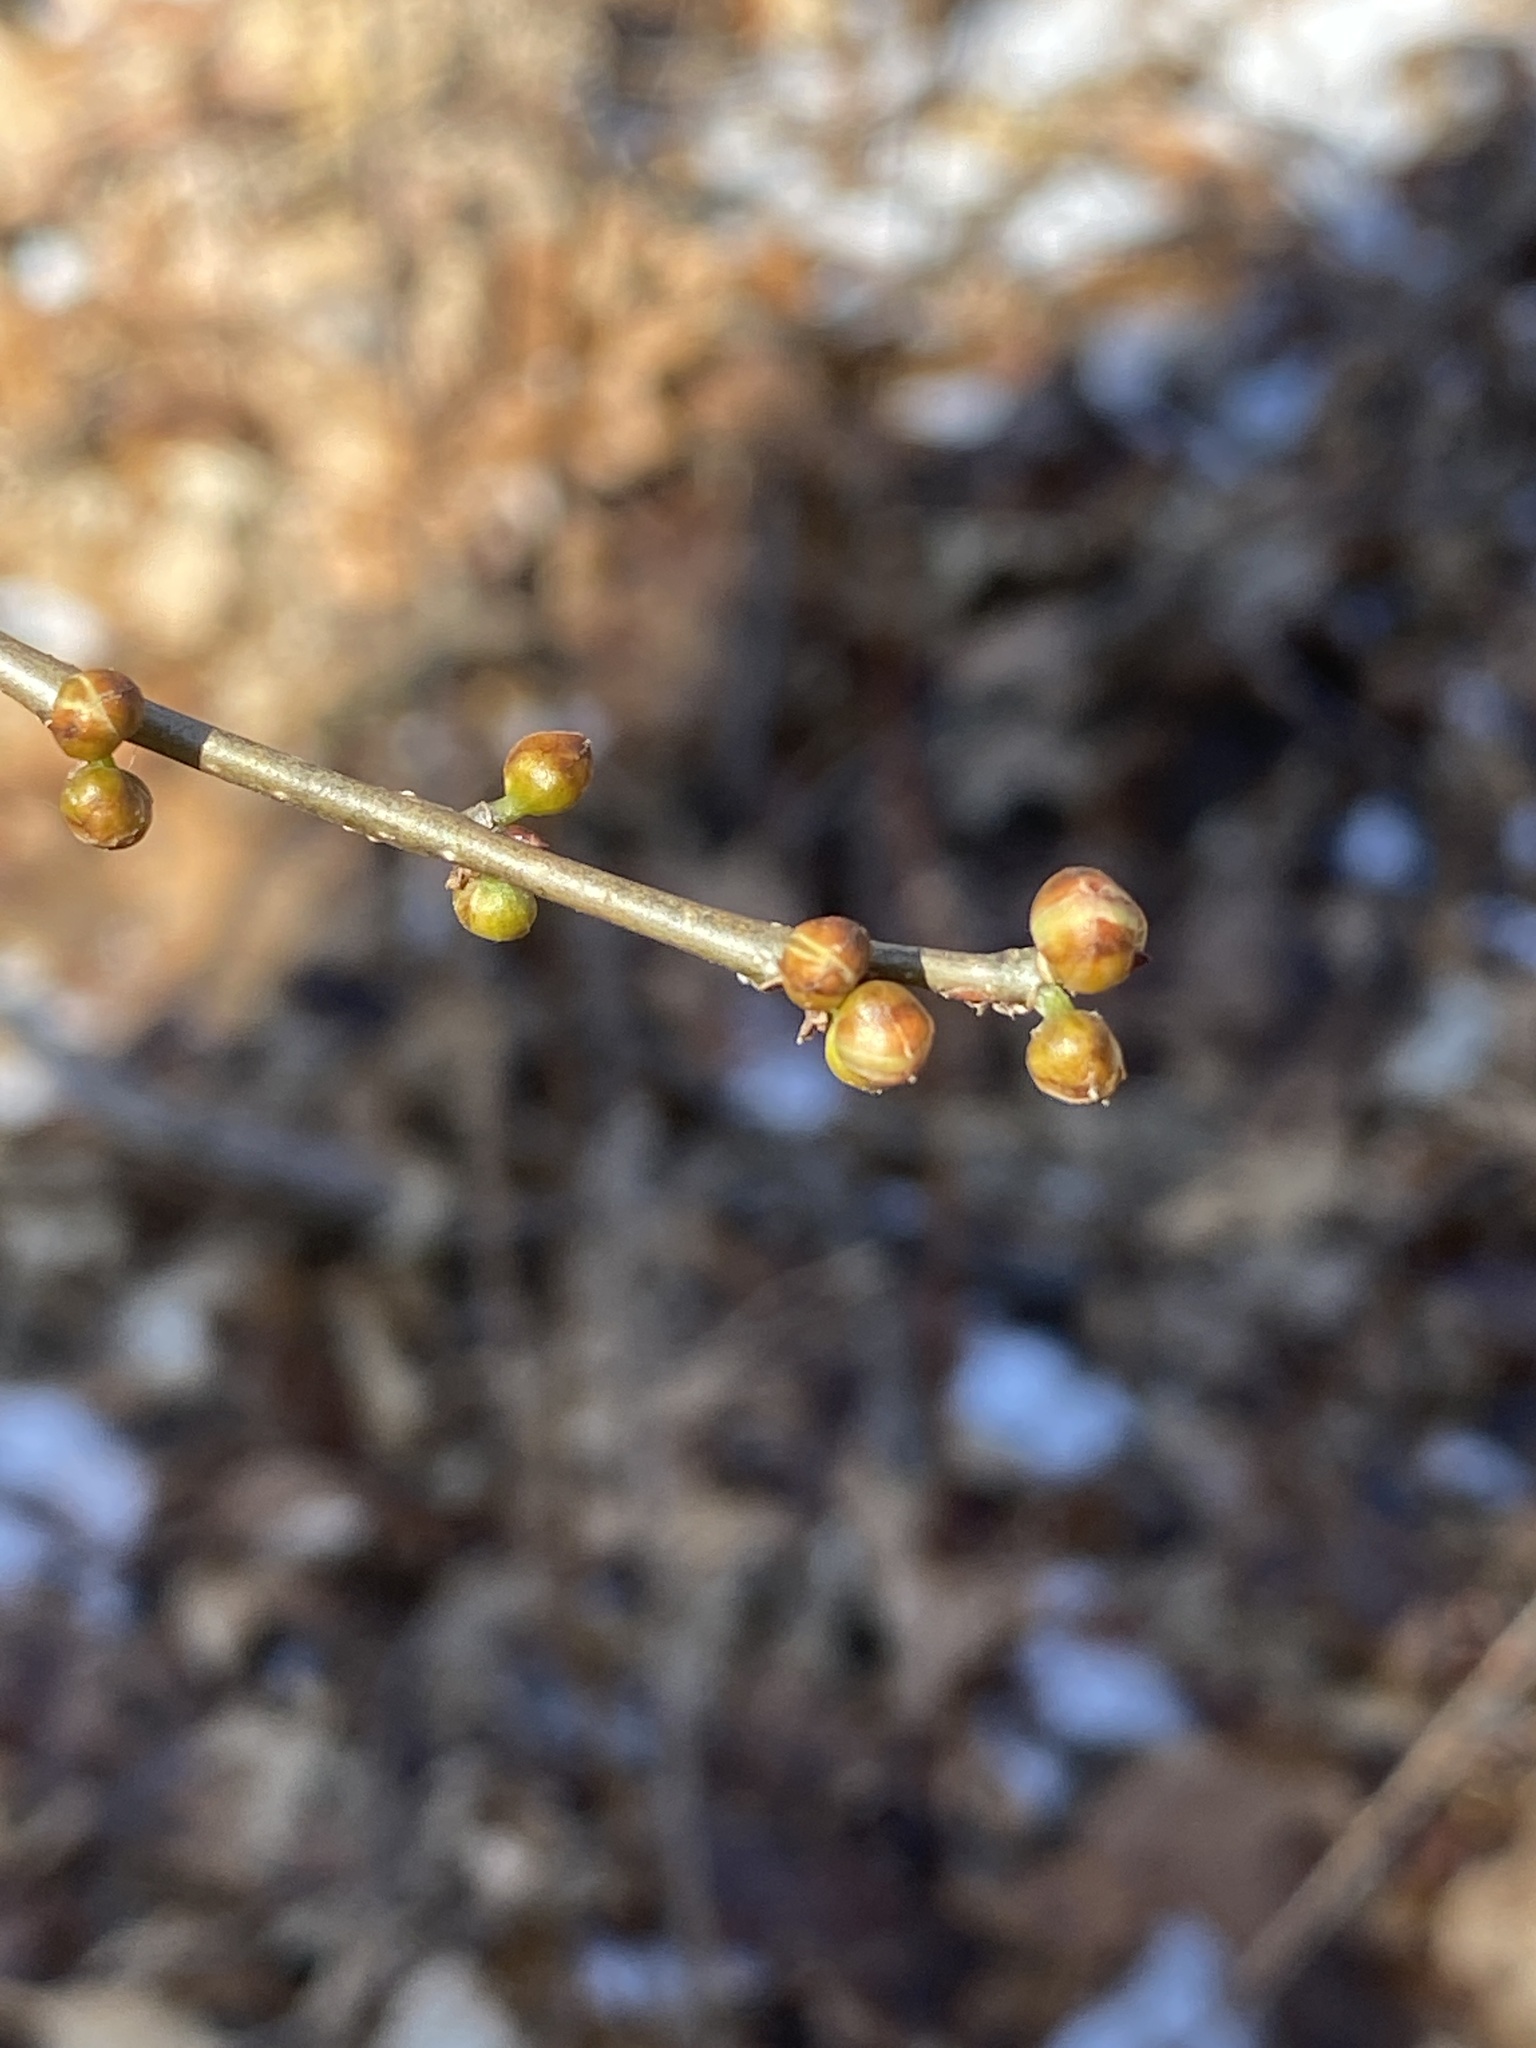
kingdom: Plantae
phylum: Tracheophyta
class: Magnoliopsida
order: Laurales
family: Lauraceae
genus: Lindera
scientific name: Lindera benzoin
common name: Spicebush
